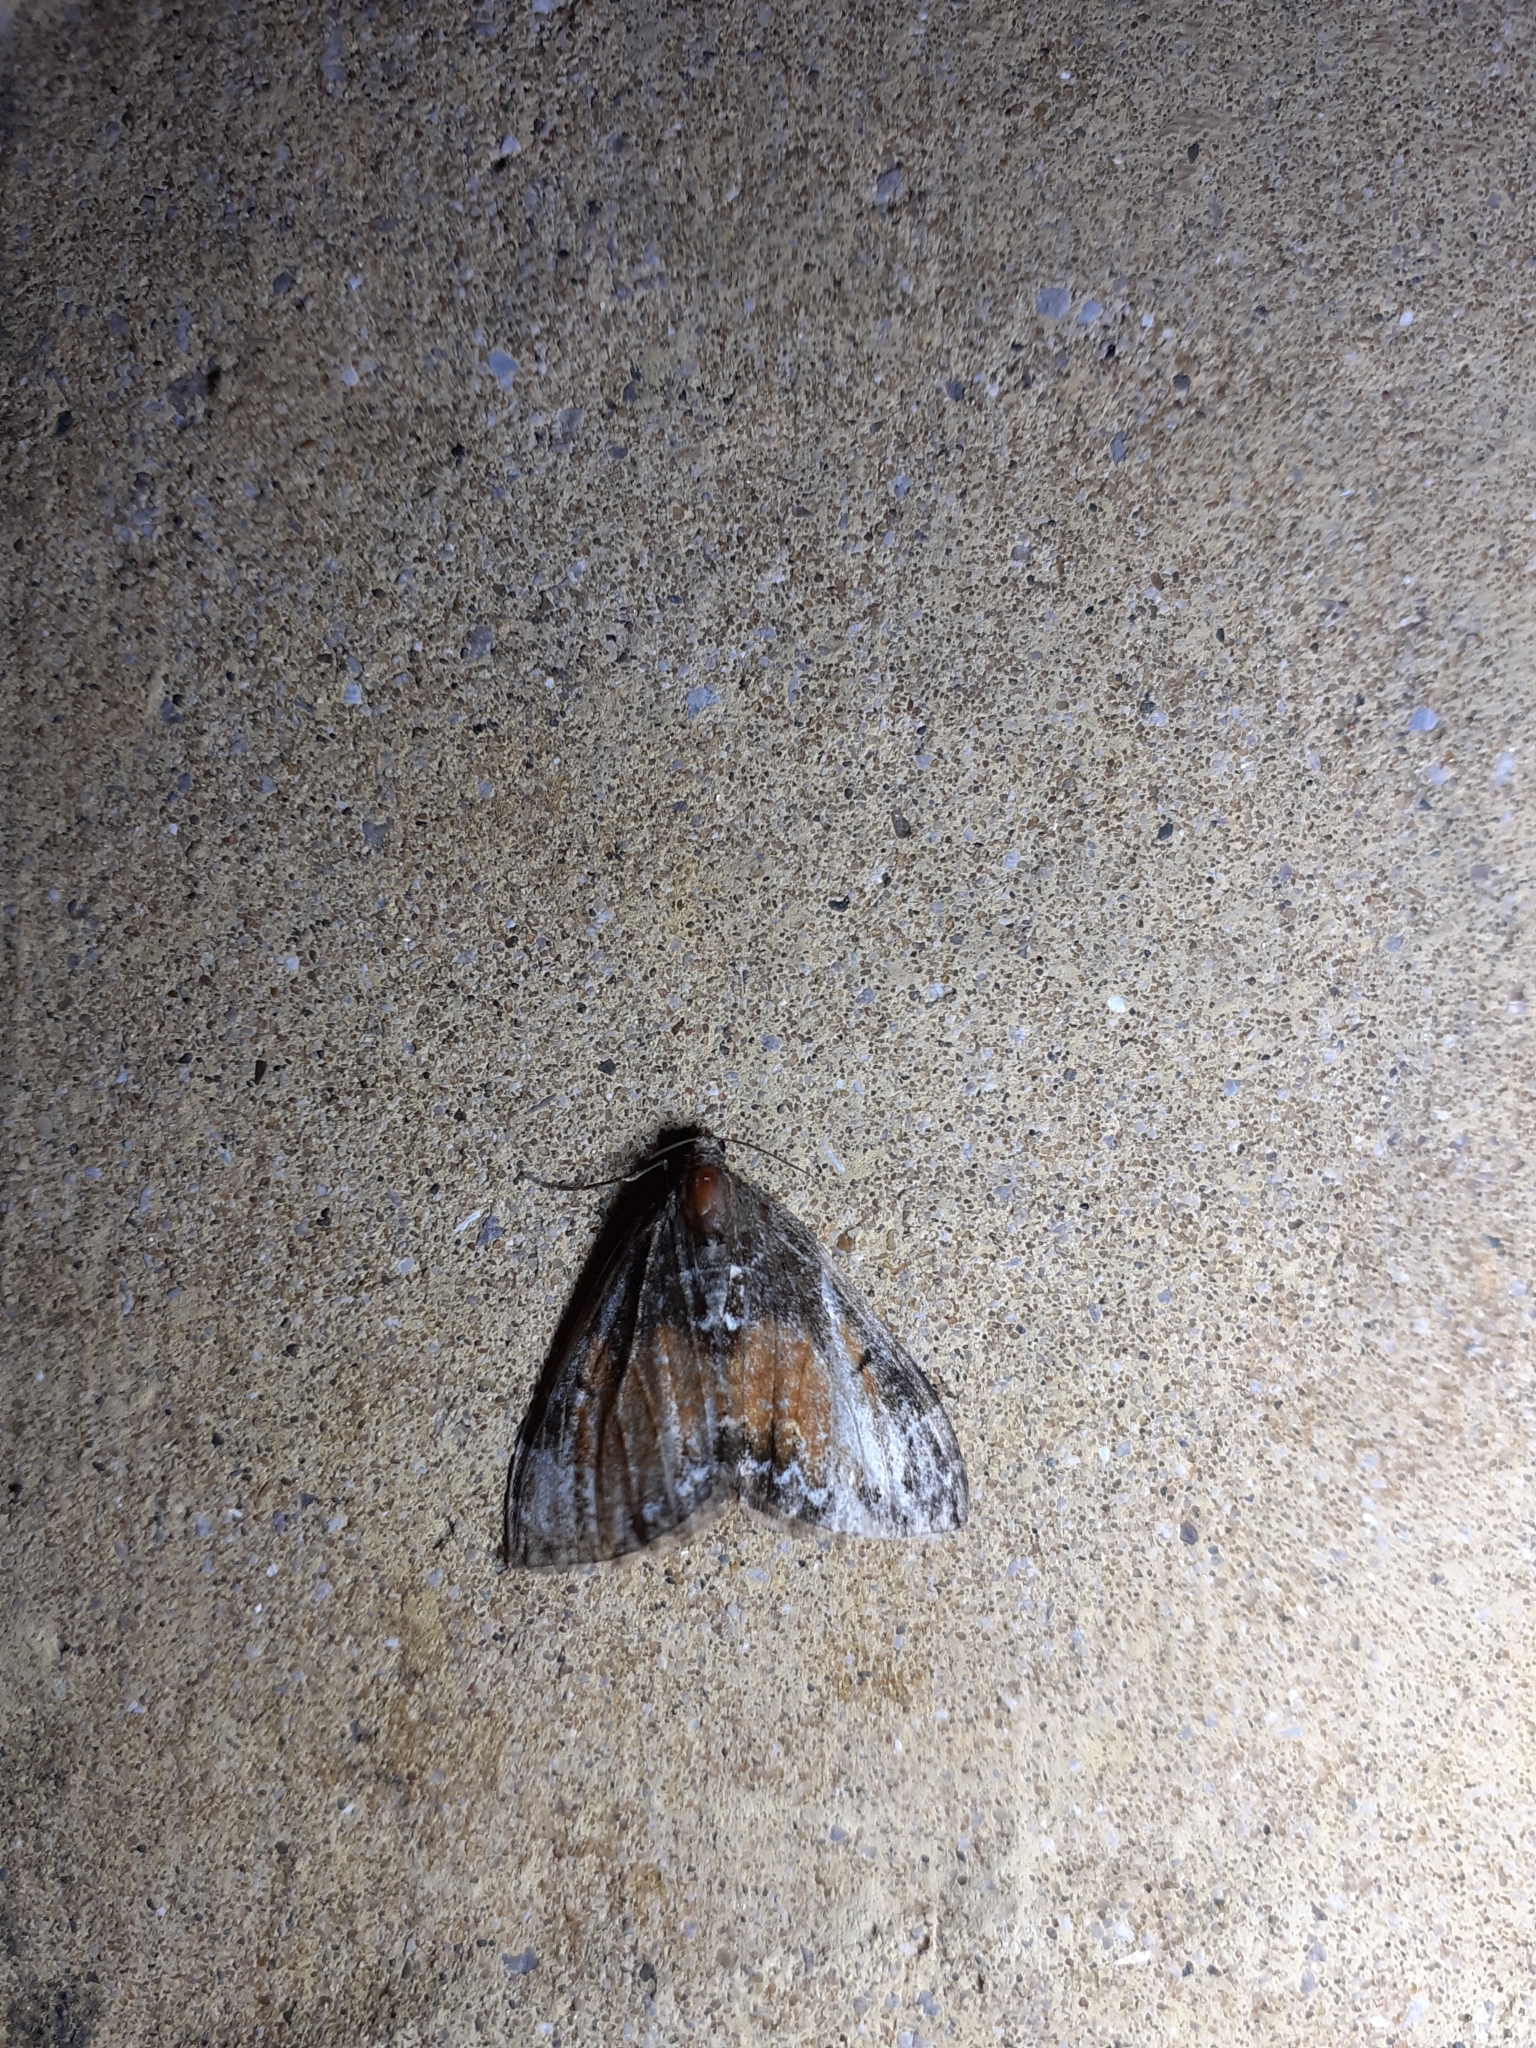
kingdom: Animalia
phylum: Arthropoda
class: Insecta
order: Lepidoptera
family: Geometridae
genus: Dysstroma
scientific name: Dysstroma truncata
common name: Common marbled carpet
